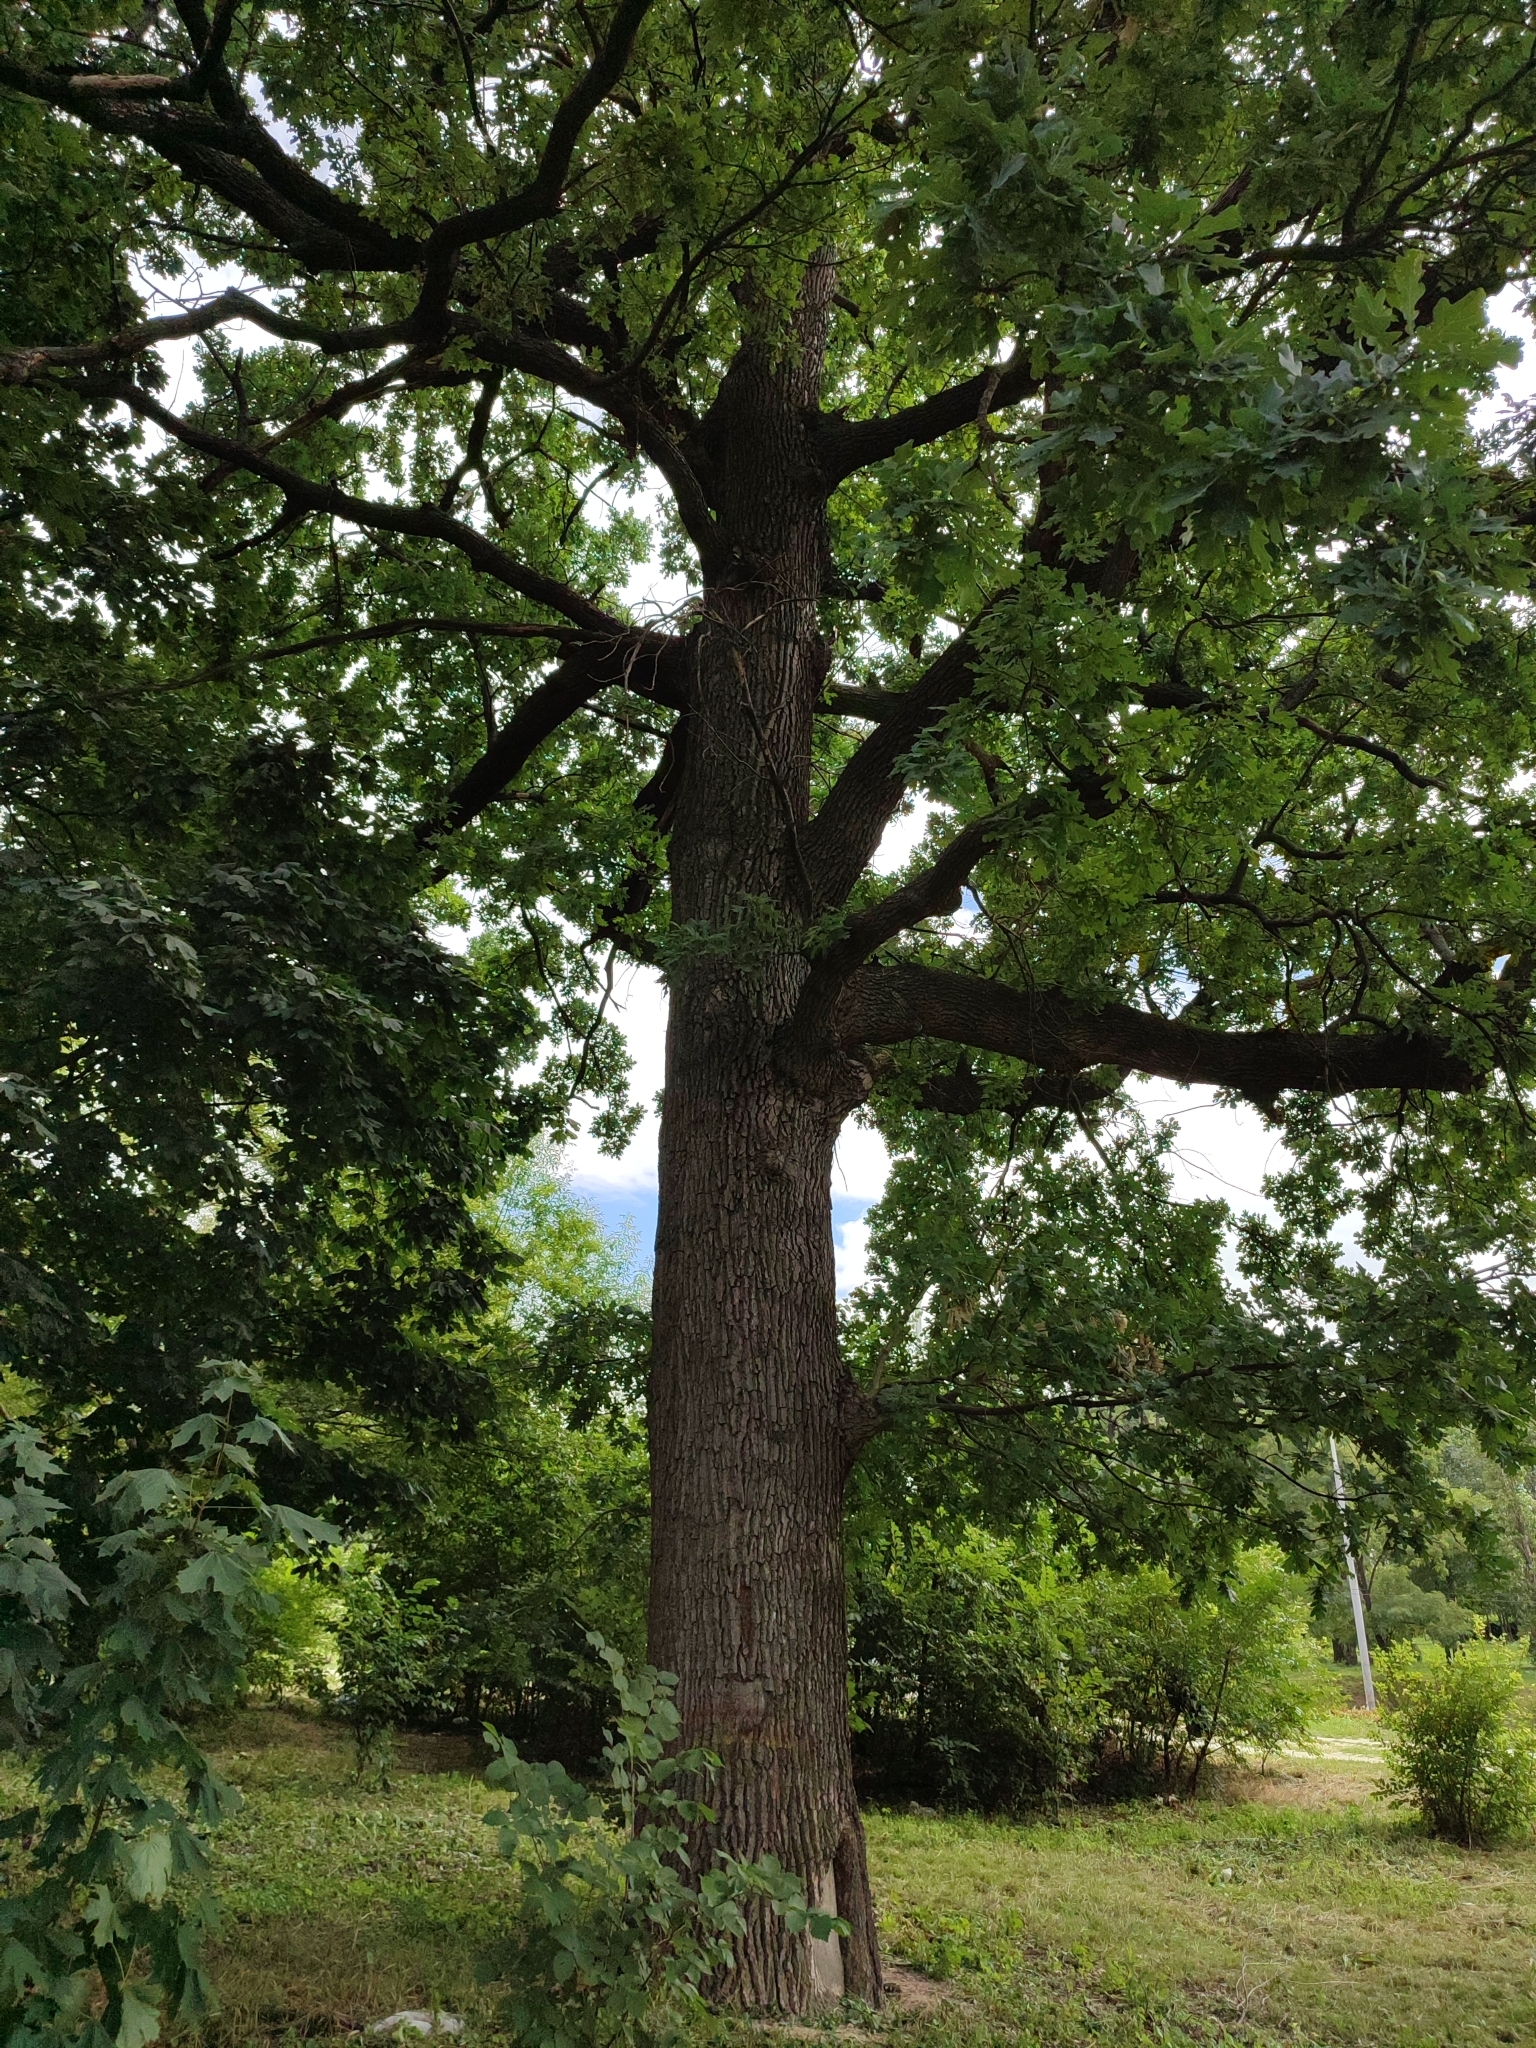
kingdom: Plantae
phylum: Tracheophyta
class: Magnoliopsida
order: Fagales
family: Fagaceae
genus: Quercus
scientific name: Quercus robur
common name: Pedunculate oak
